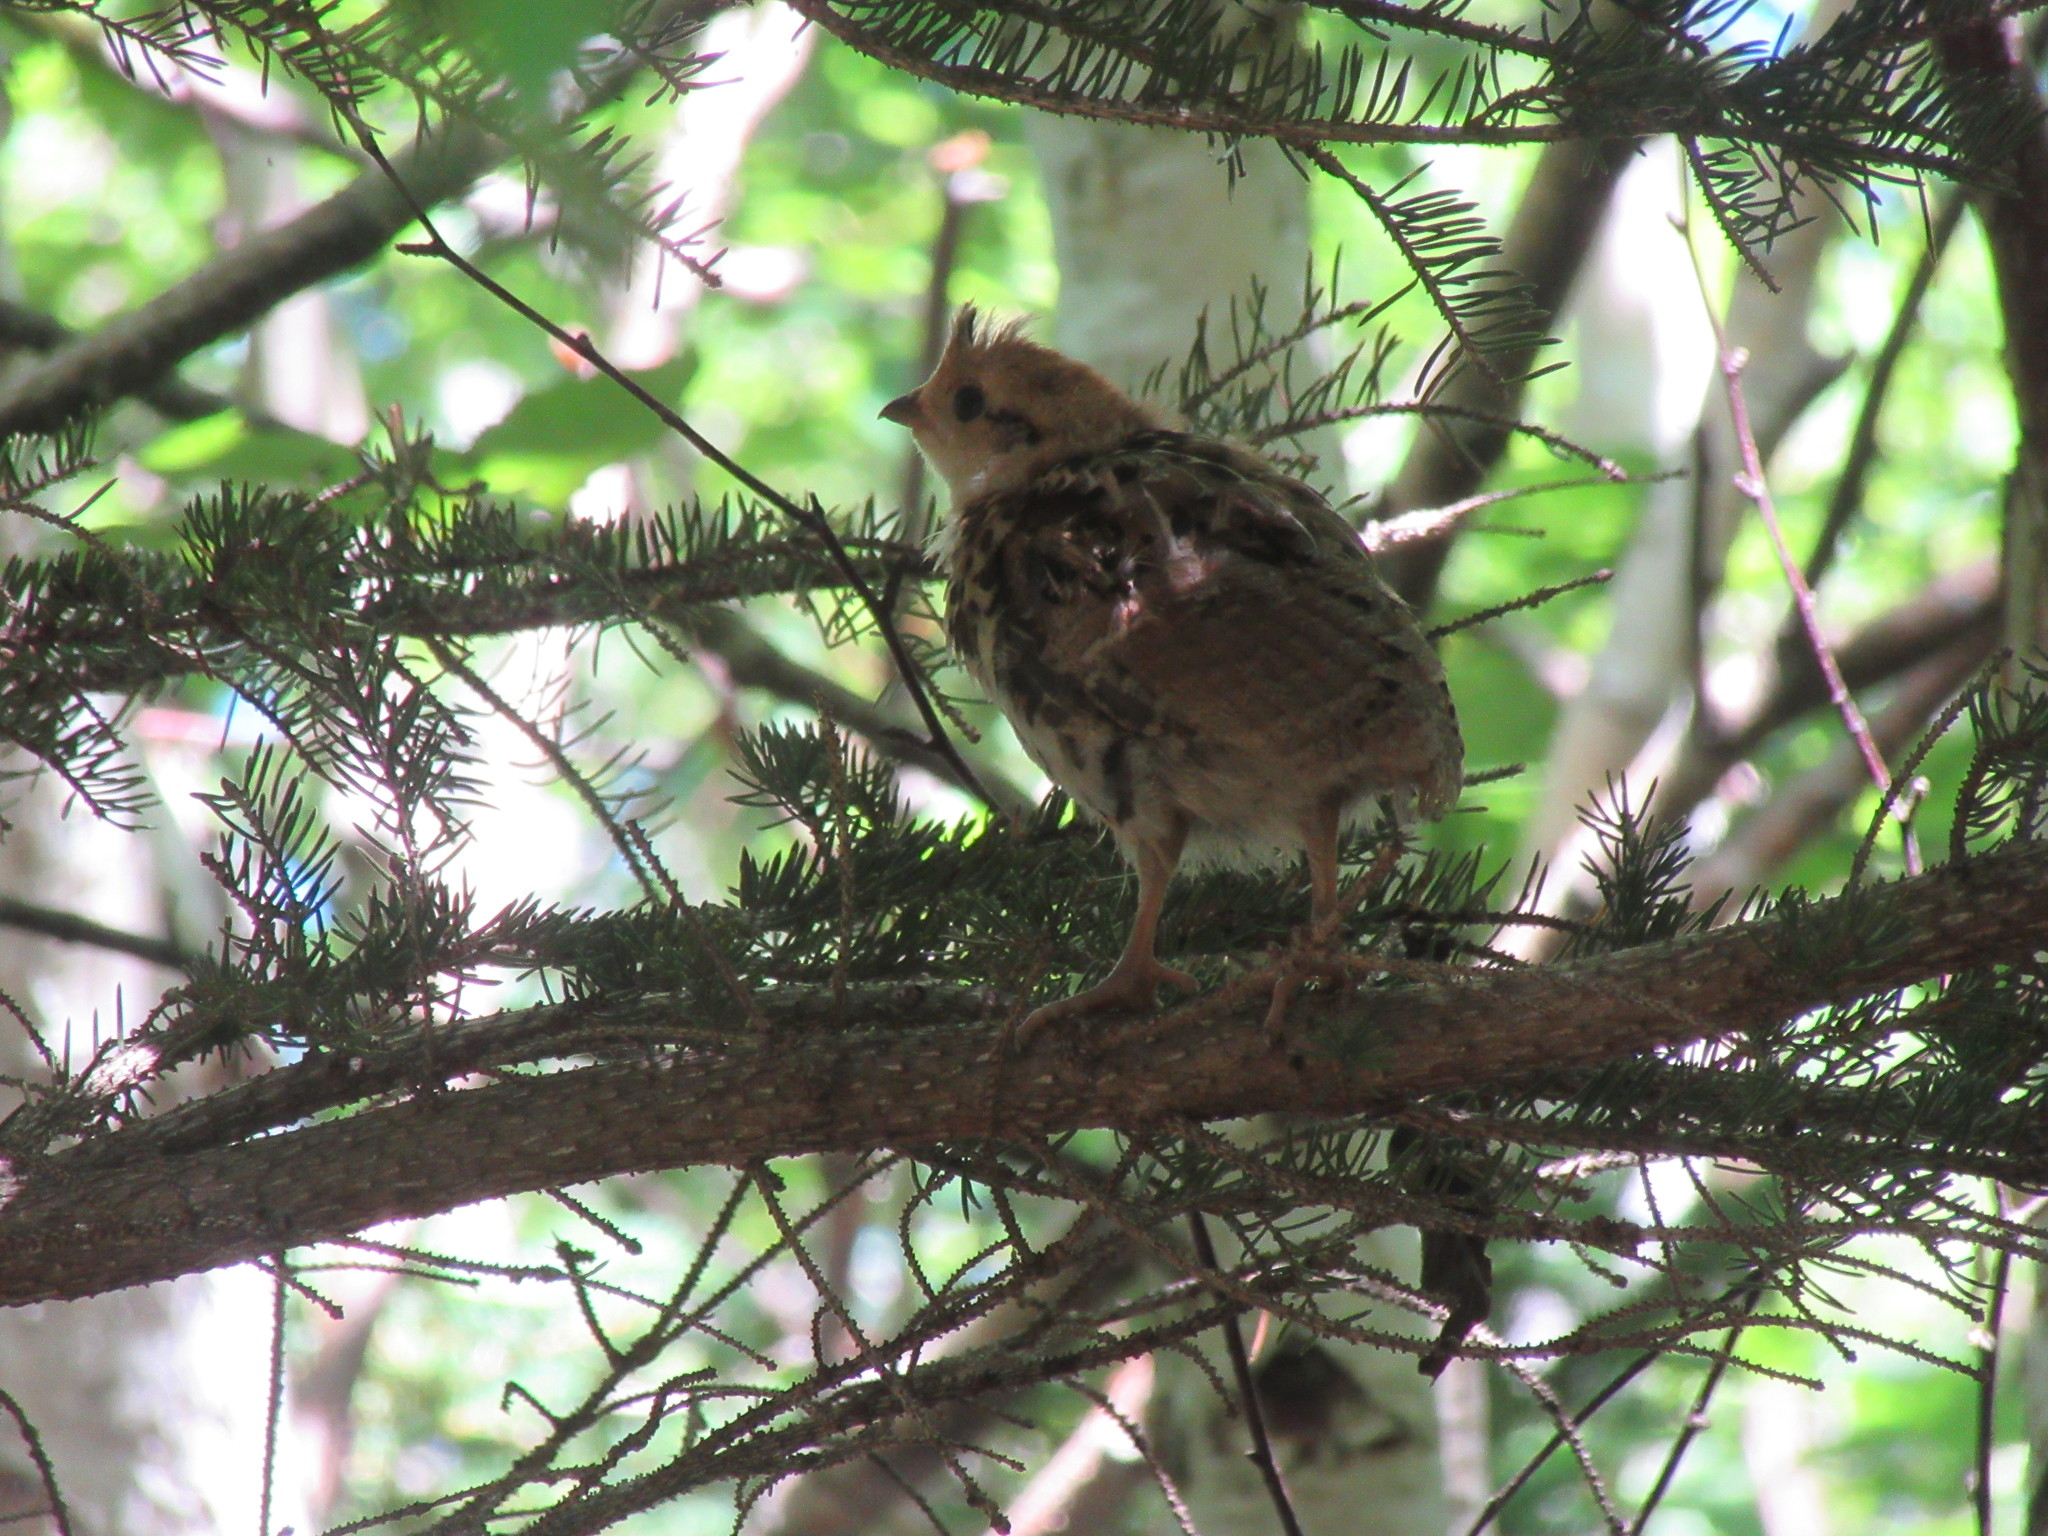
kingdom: Animalia
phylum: Chordata
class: Aves
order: Galliformes
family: Phasianidae
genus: Bonasa
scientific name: Bonasa umbellus
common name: Ruffed grouse
